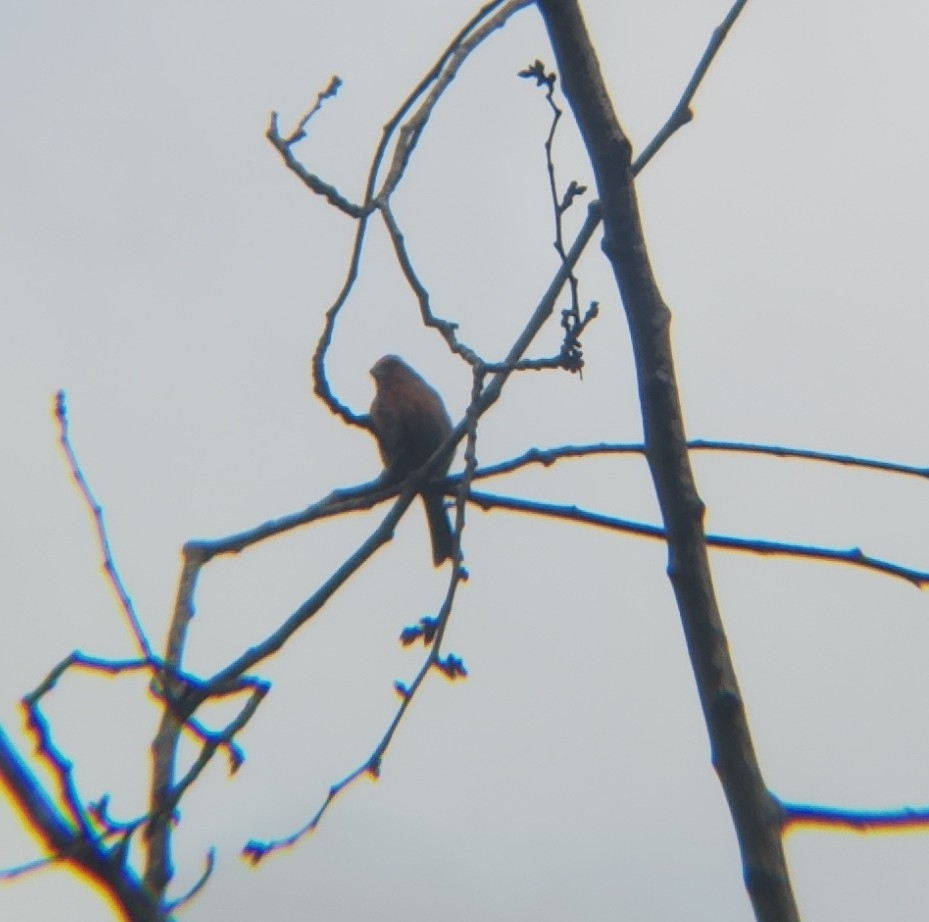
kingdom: Animalia
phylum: Chordata
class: Aves
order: Passeriformes
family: Fringillidae
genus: Haemorhous
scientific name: Haemorhous mexicanus
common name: House finch
